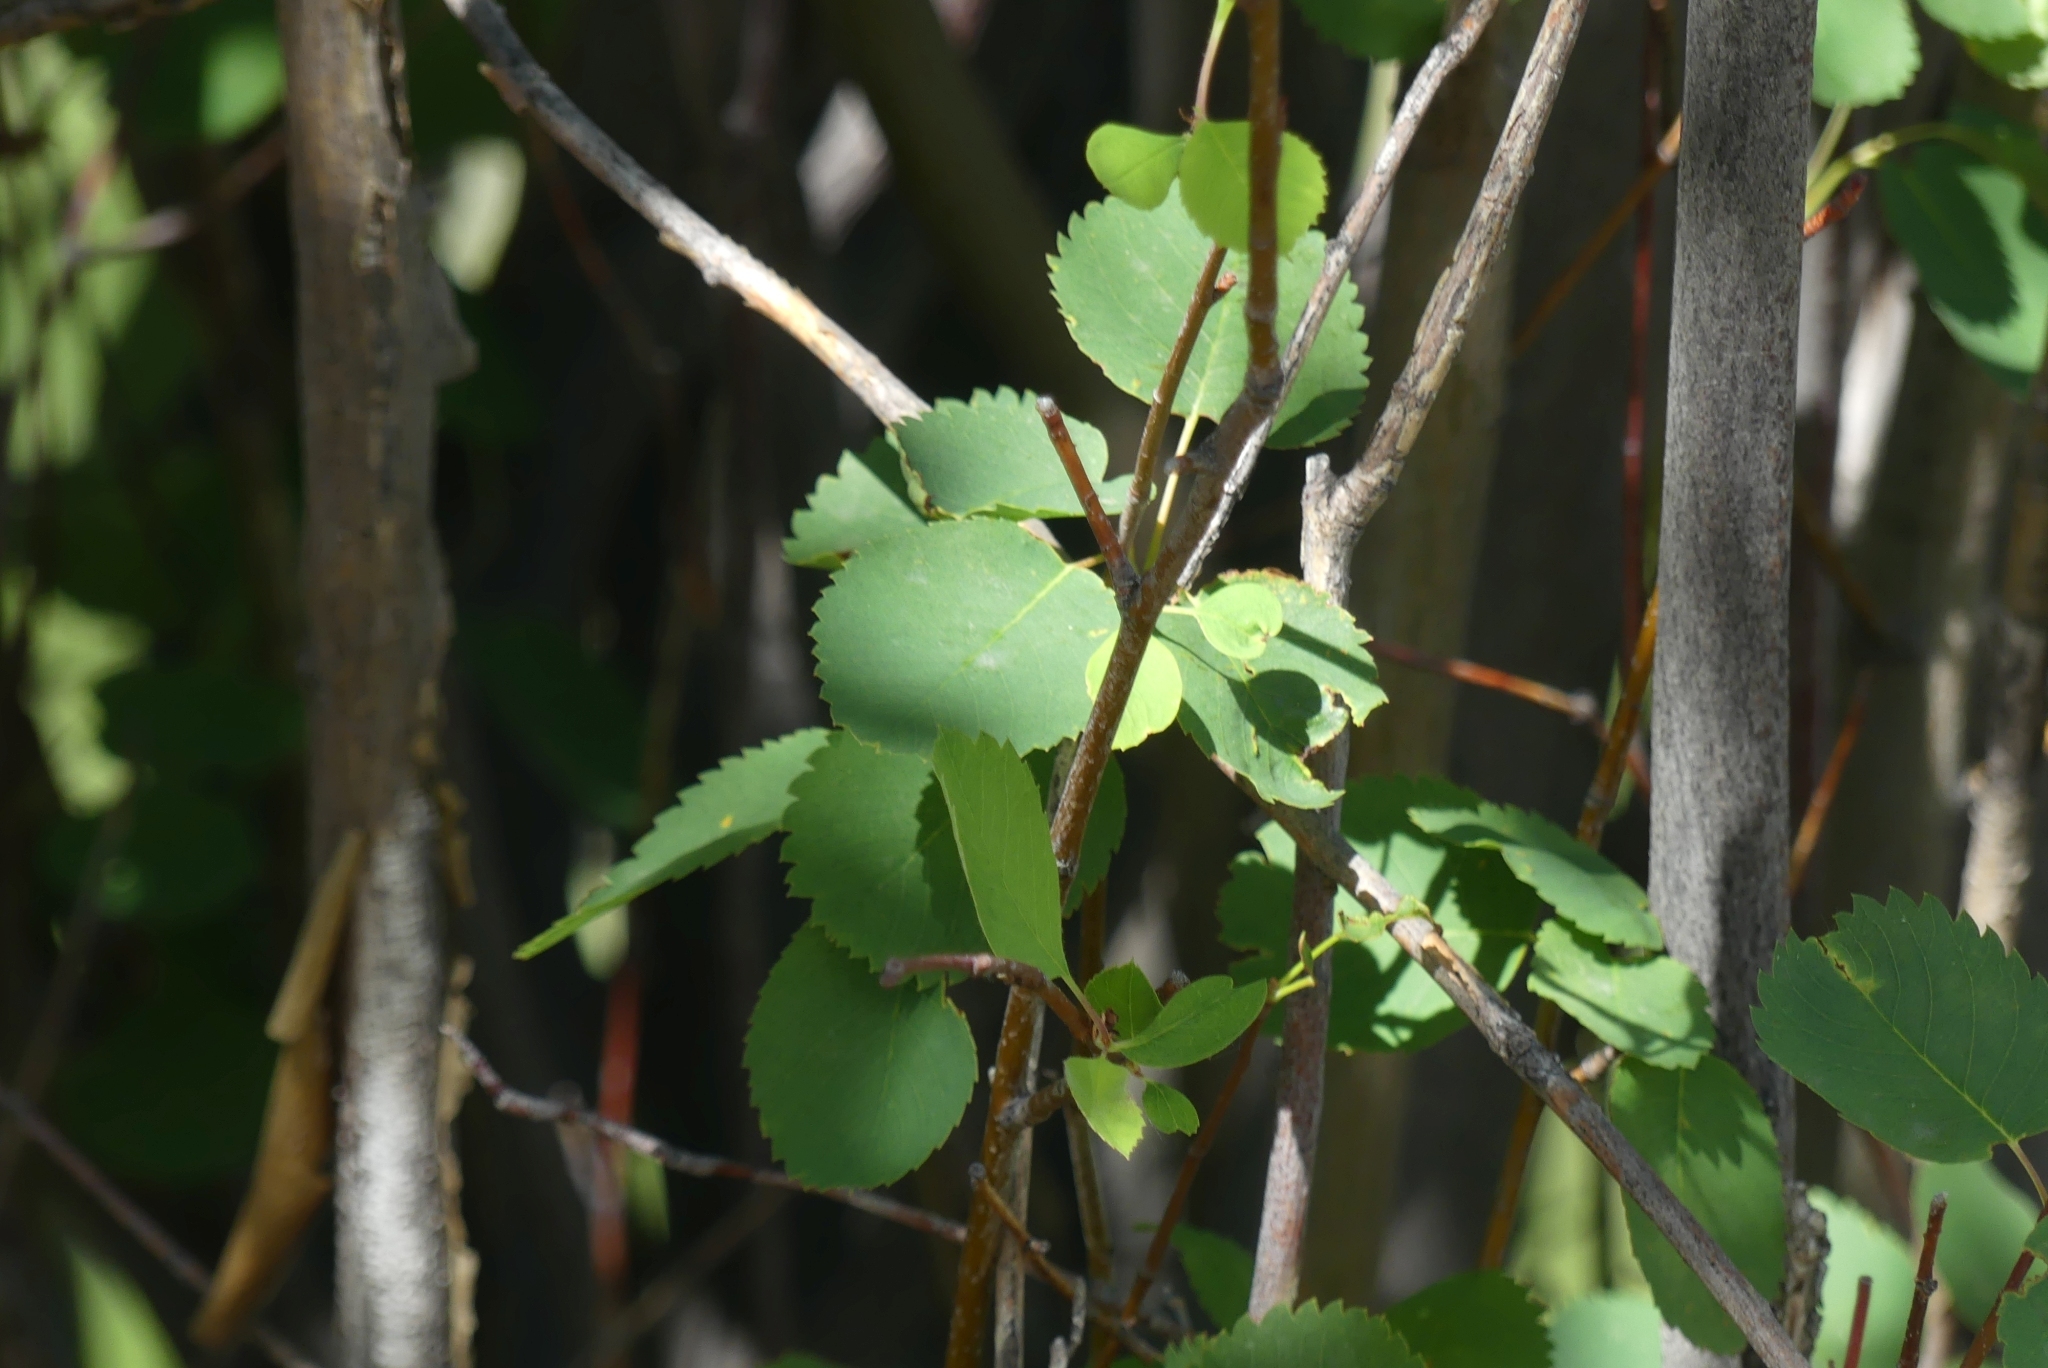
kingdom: Plantae
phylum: Tracheophyta
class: Magnoliopsida
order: Rosales
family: Rosaceae
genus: Amelanchier
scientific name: Amelanchier alnifolia
